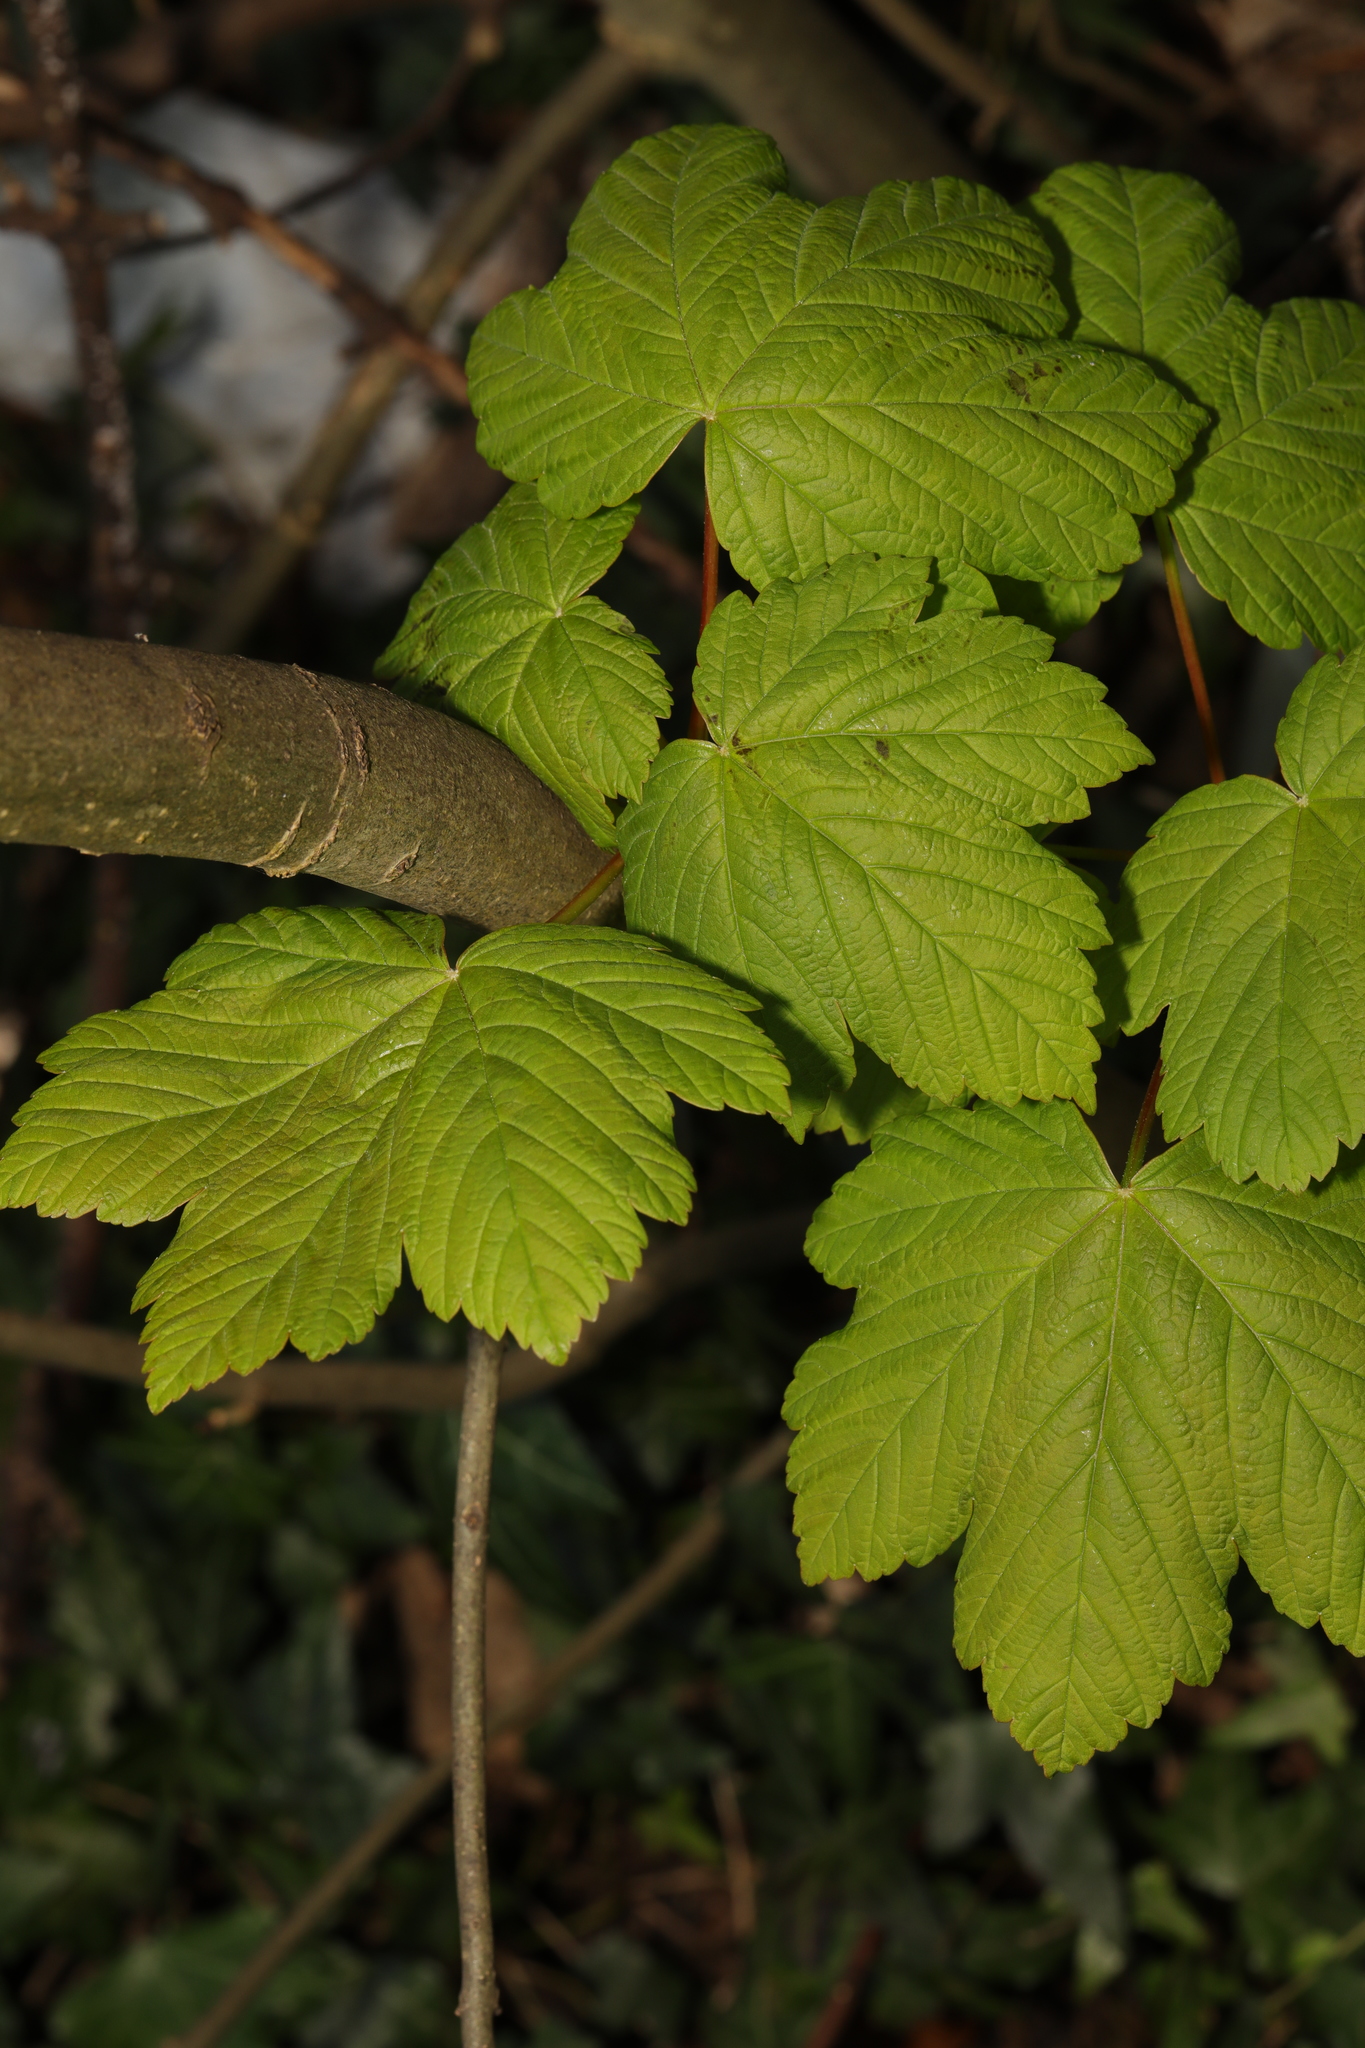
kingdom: Plantae
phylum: Tracheophyta
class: Magnoliopsida
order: Sapindales
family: Sapindaceae
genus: Acer
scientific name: Acer pseudoplatanus
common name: Sycamore
